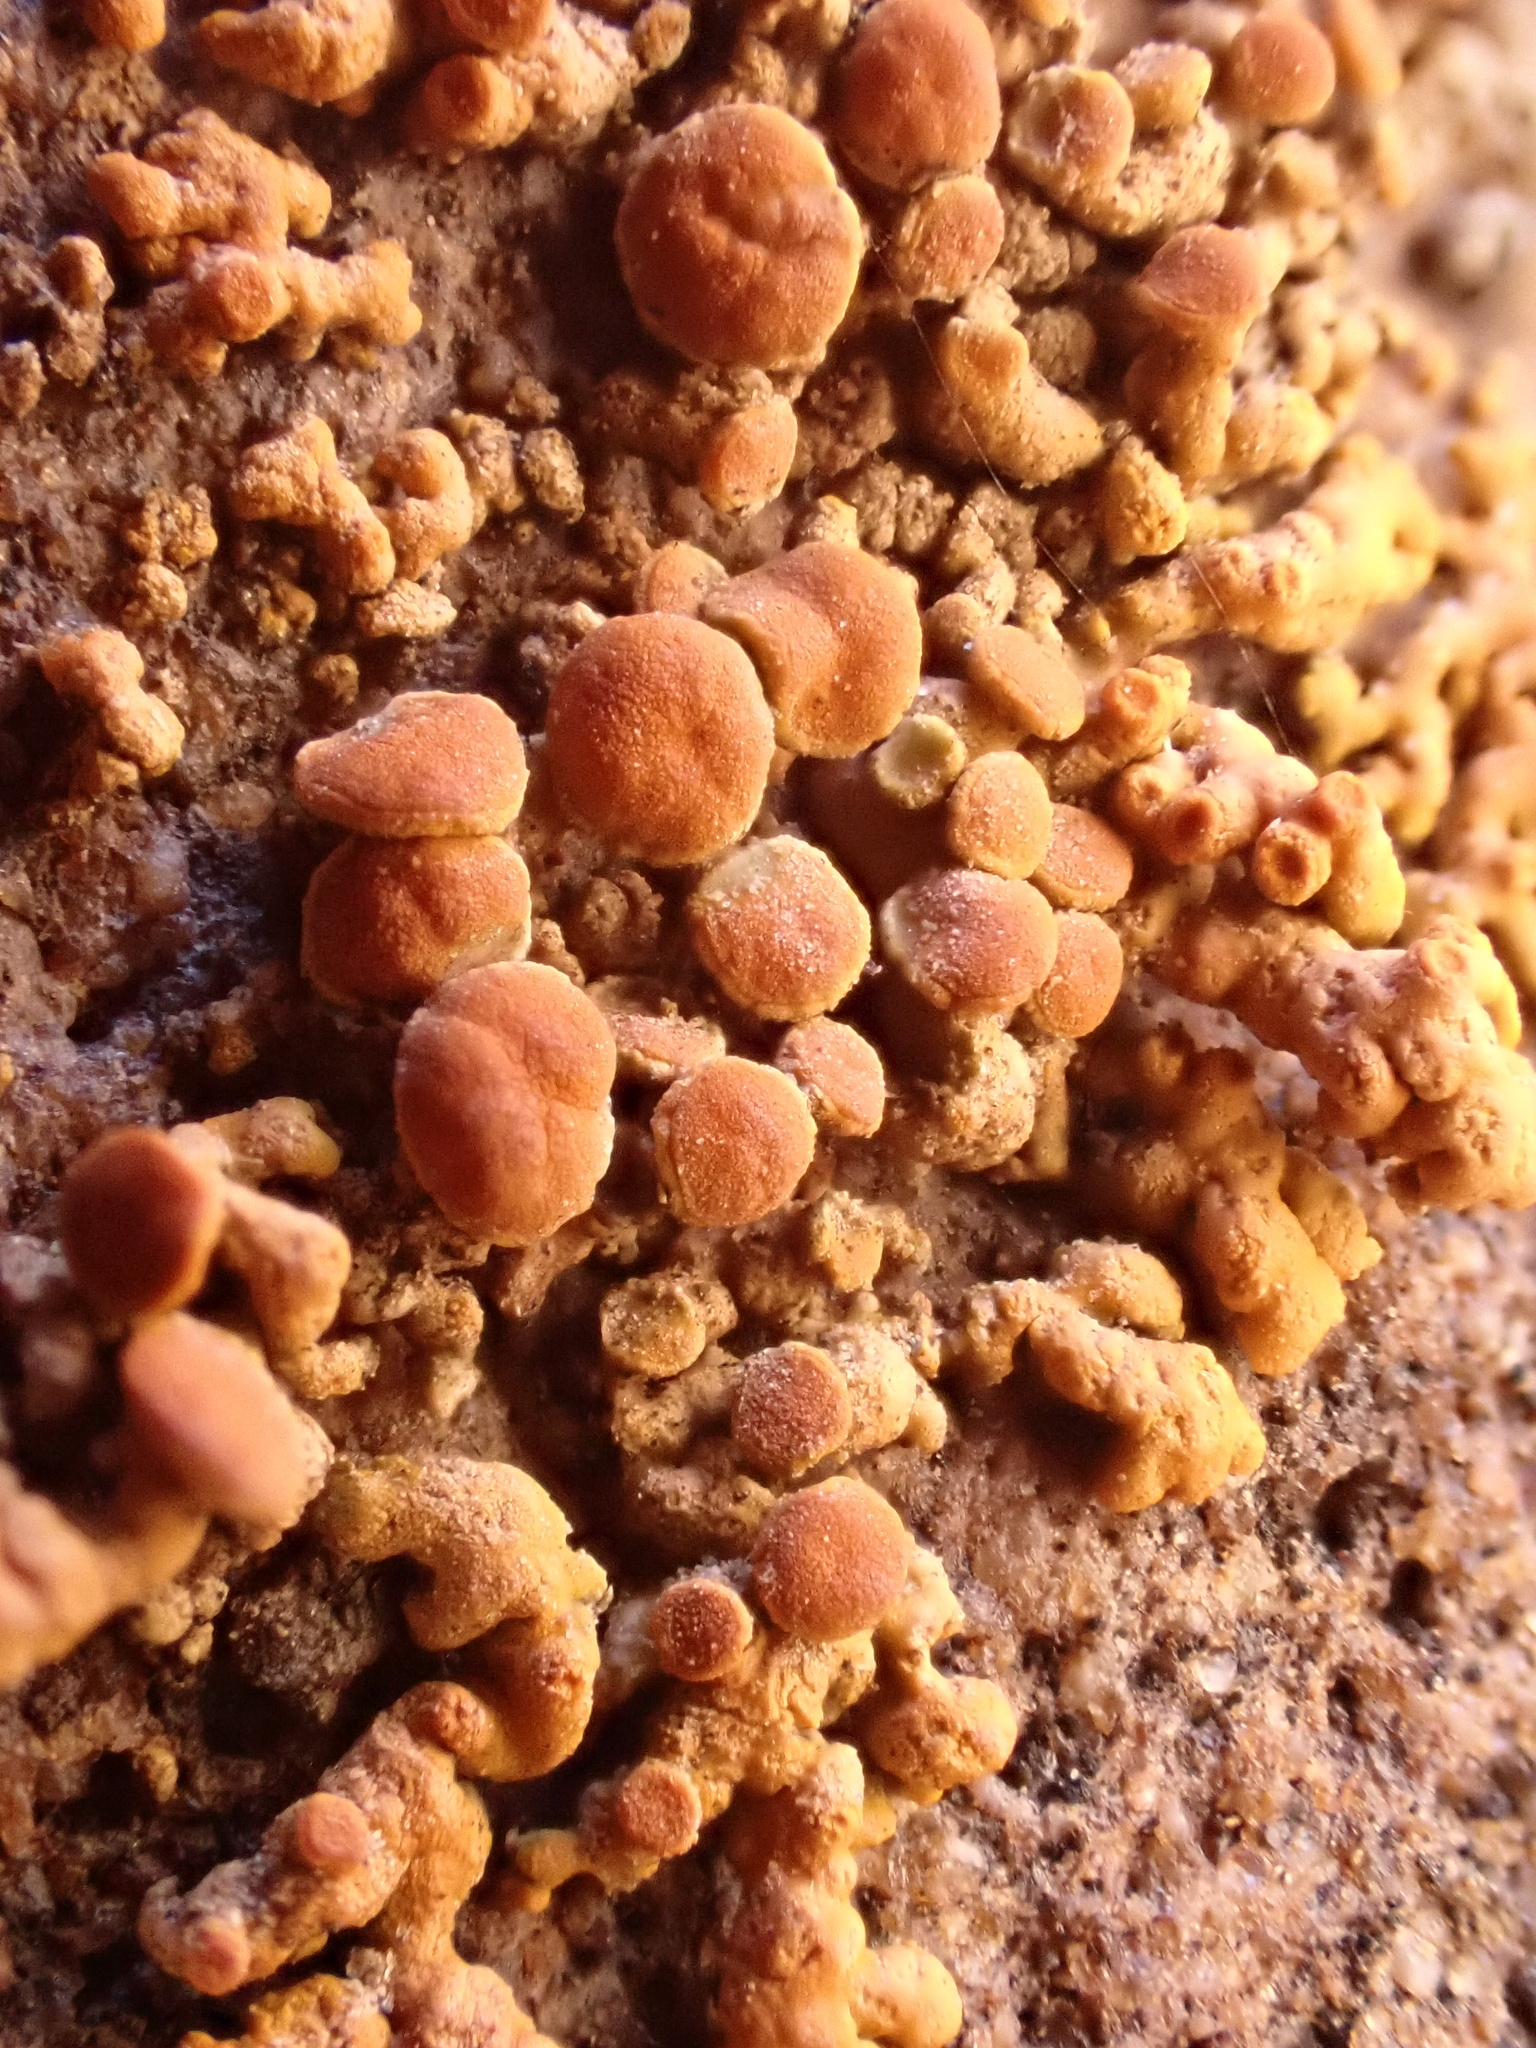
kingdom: Fungi
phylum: Ascomycota
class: Lecanoromycetes
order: Teloschistales
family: Teloschistaceae
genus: Xanthoria
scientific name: Xanthoria elegans
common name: Elegant sunburst lichen
